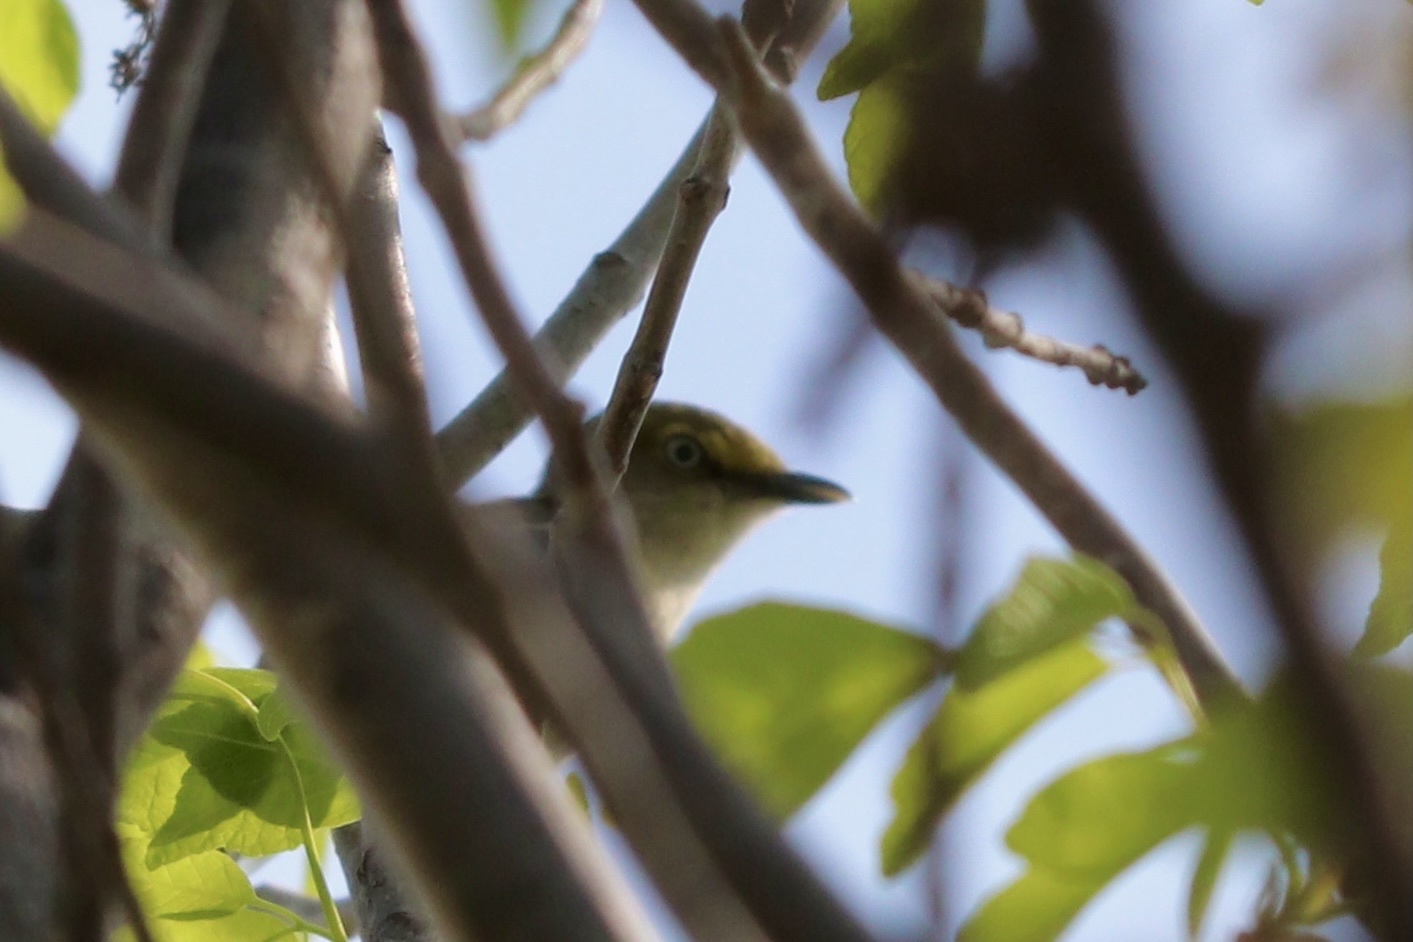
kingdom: Animalia
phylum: Chordata
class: Aves
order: Passeriformes
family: Vireonidae
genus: Vireo
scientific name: Vireo griseus
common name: White-eyed vireo
